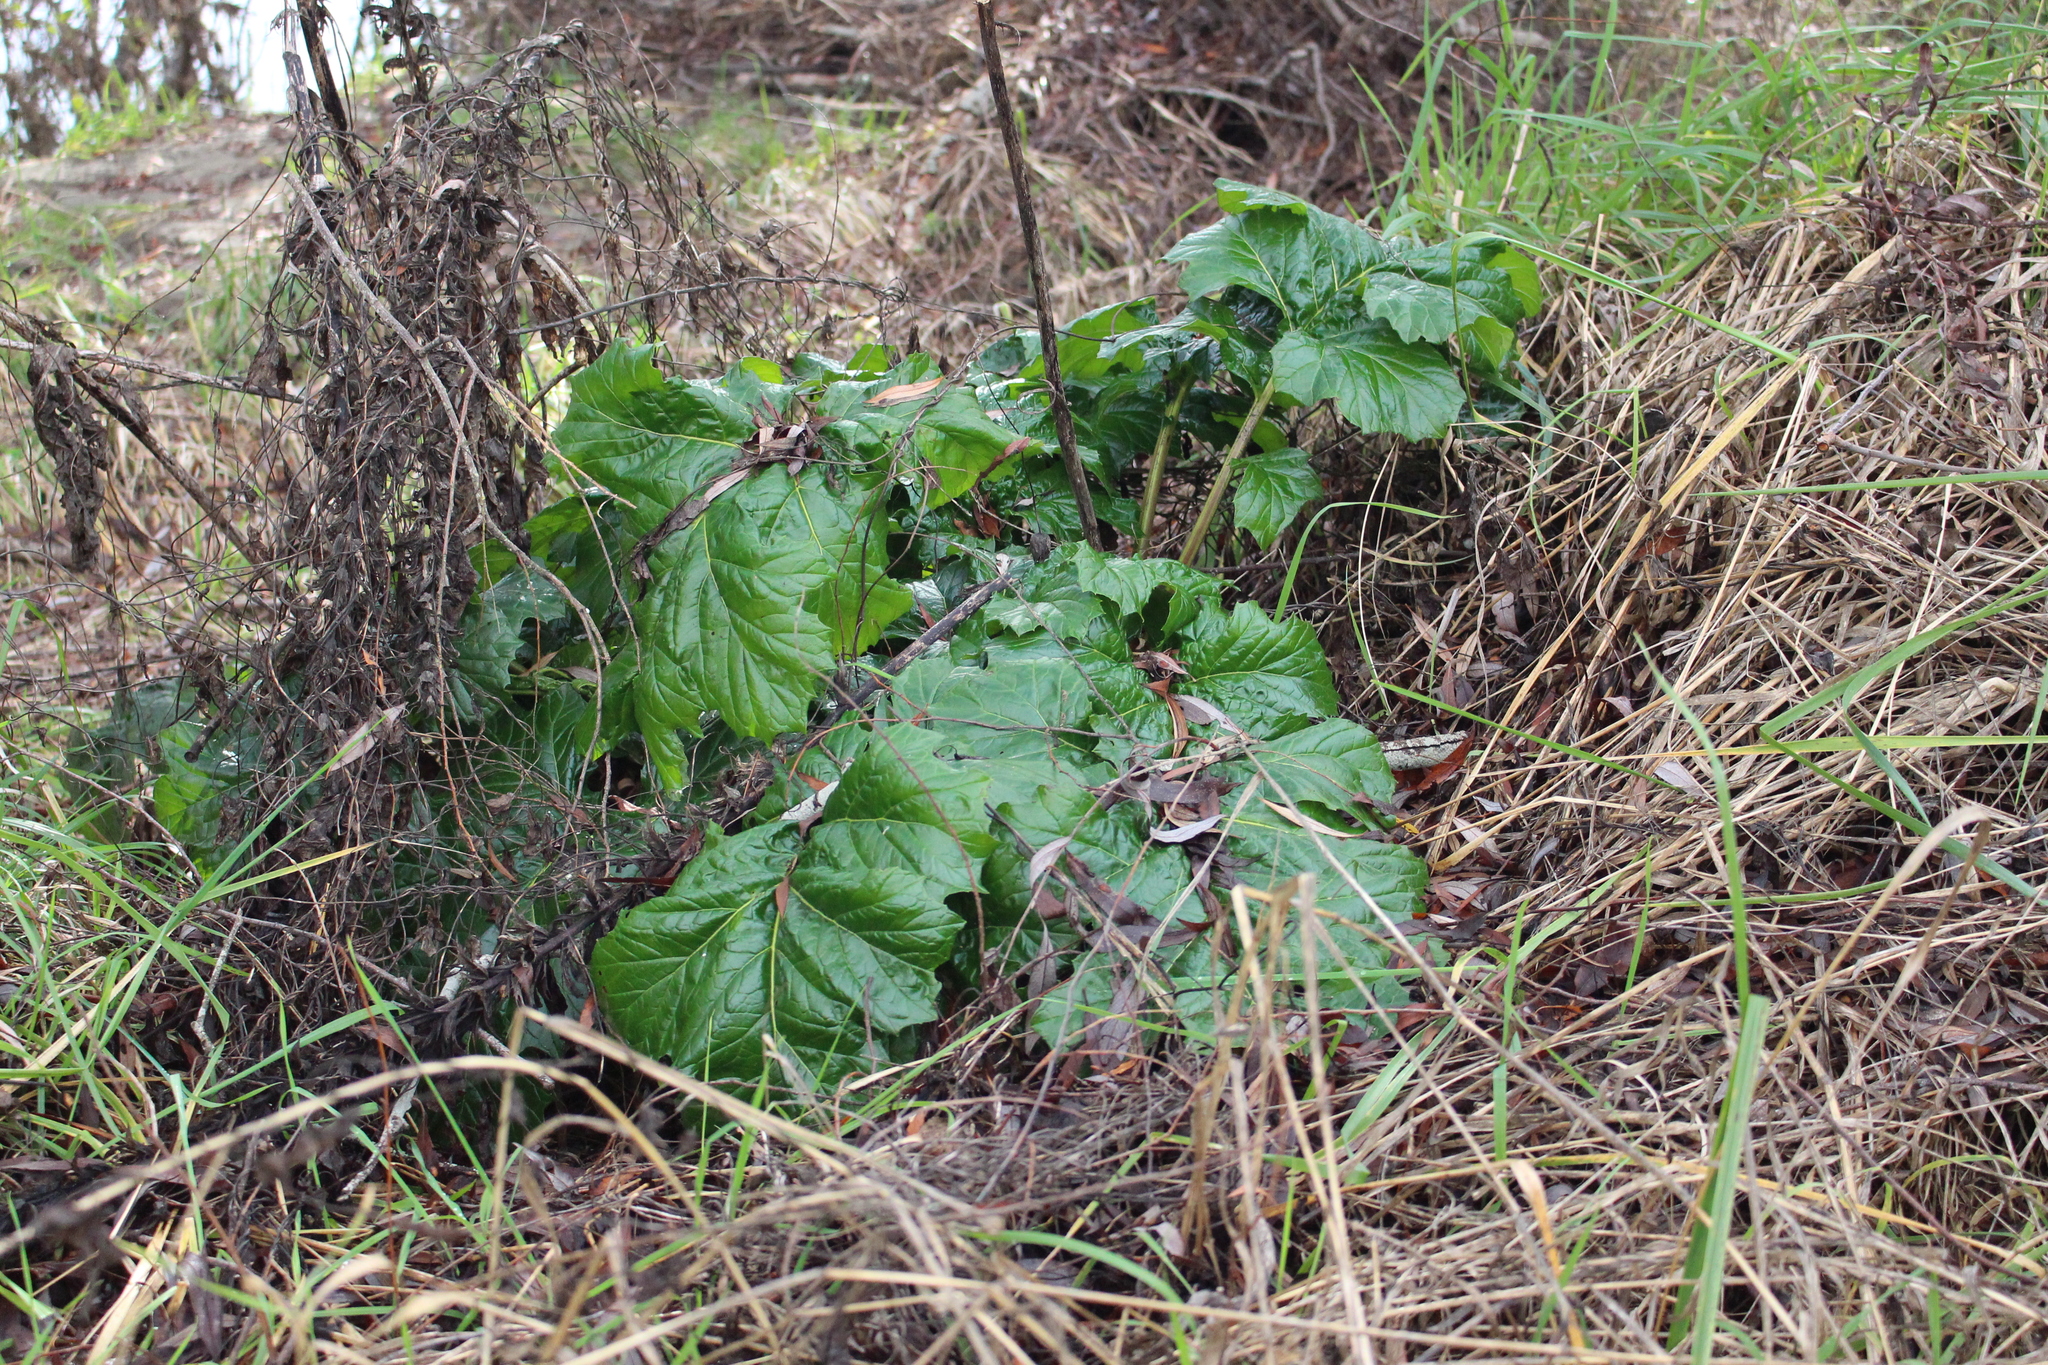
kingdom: Plantae
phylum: Tracheophyta
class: Magnoliopsida
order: Lamiales
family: Acanthaceae
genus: Acanthus
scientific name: Acanthus mollis
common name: Bear's-breech
